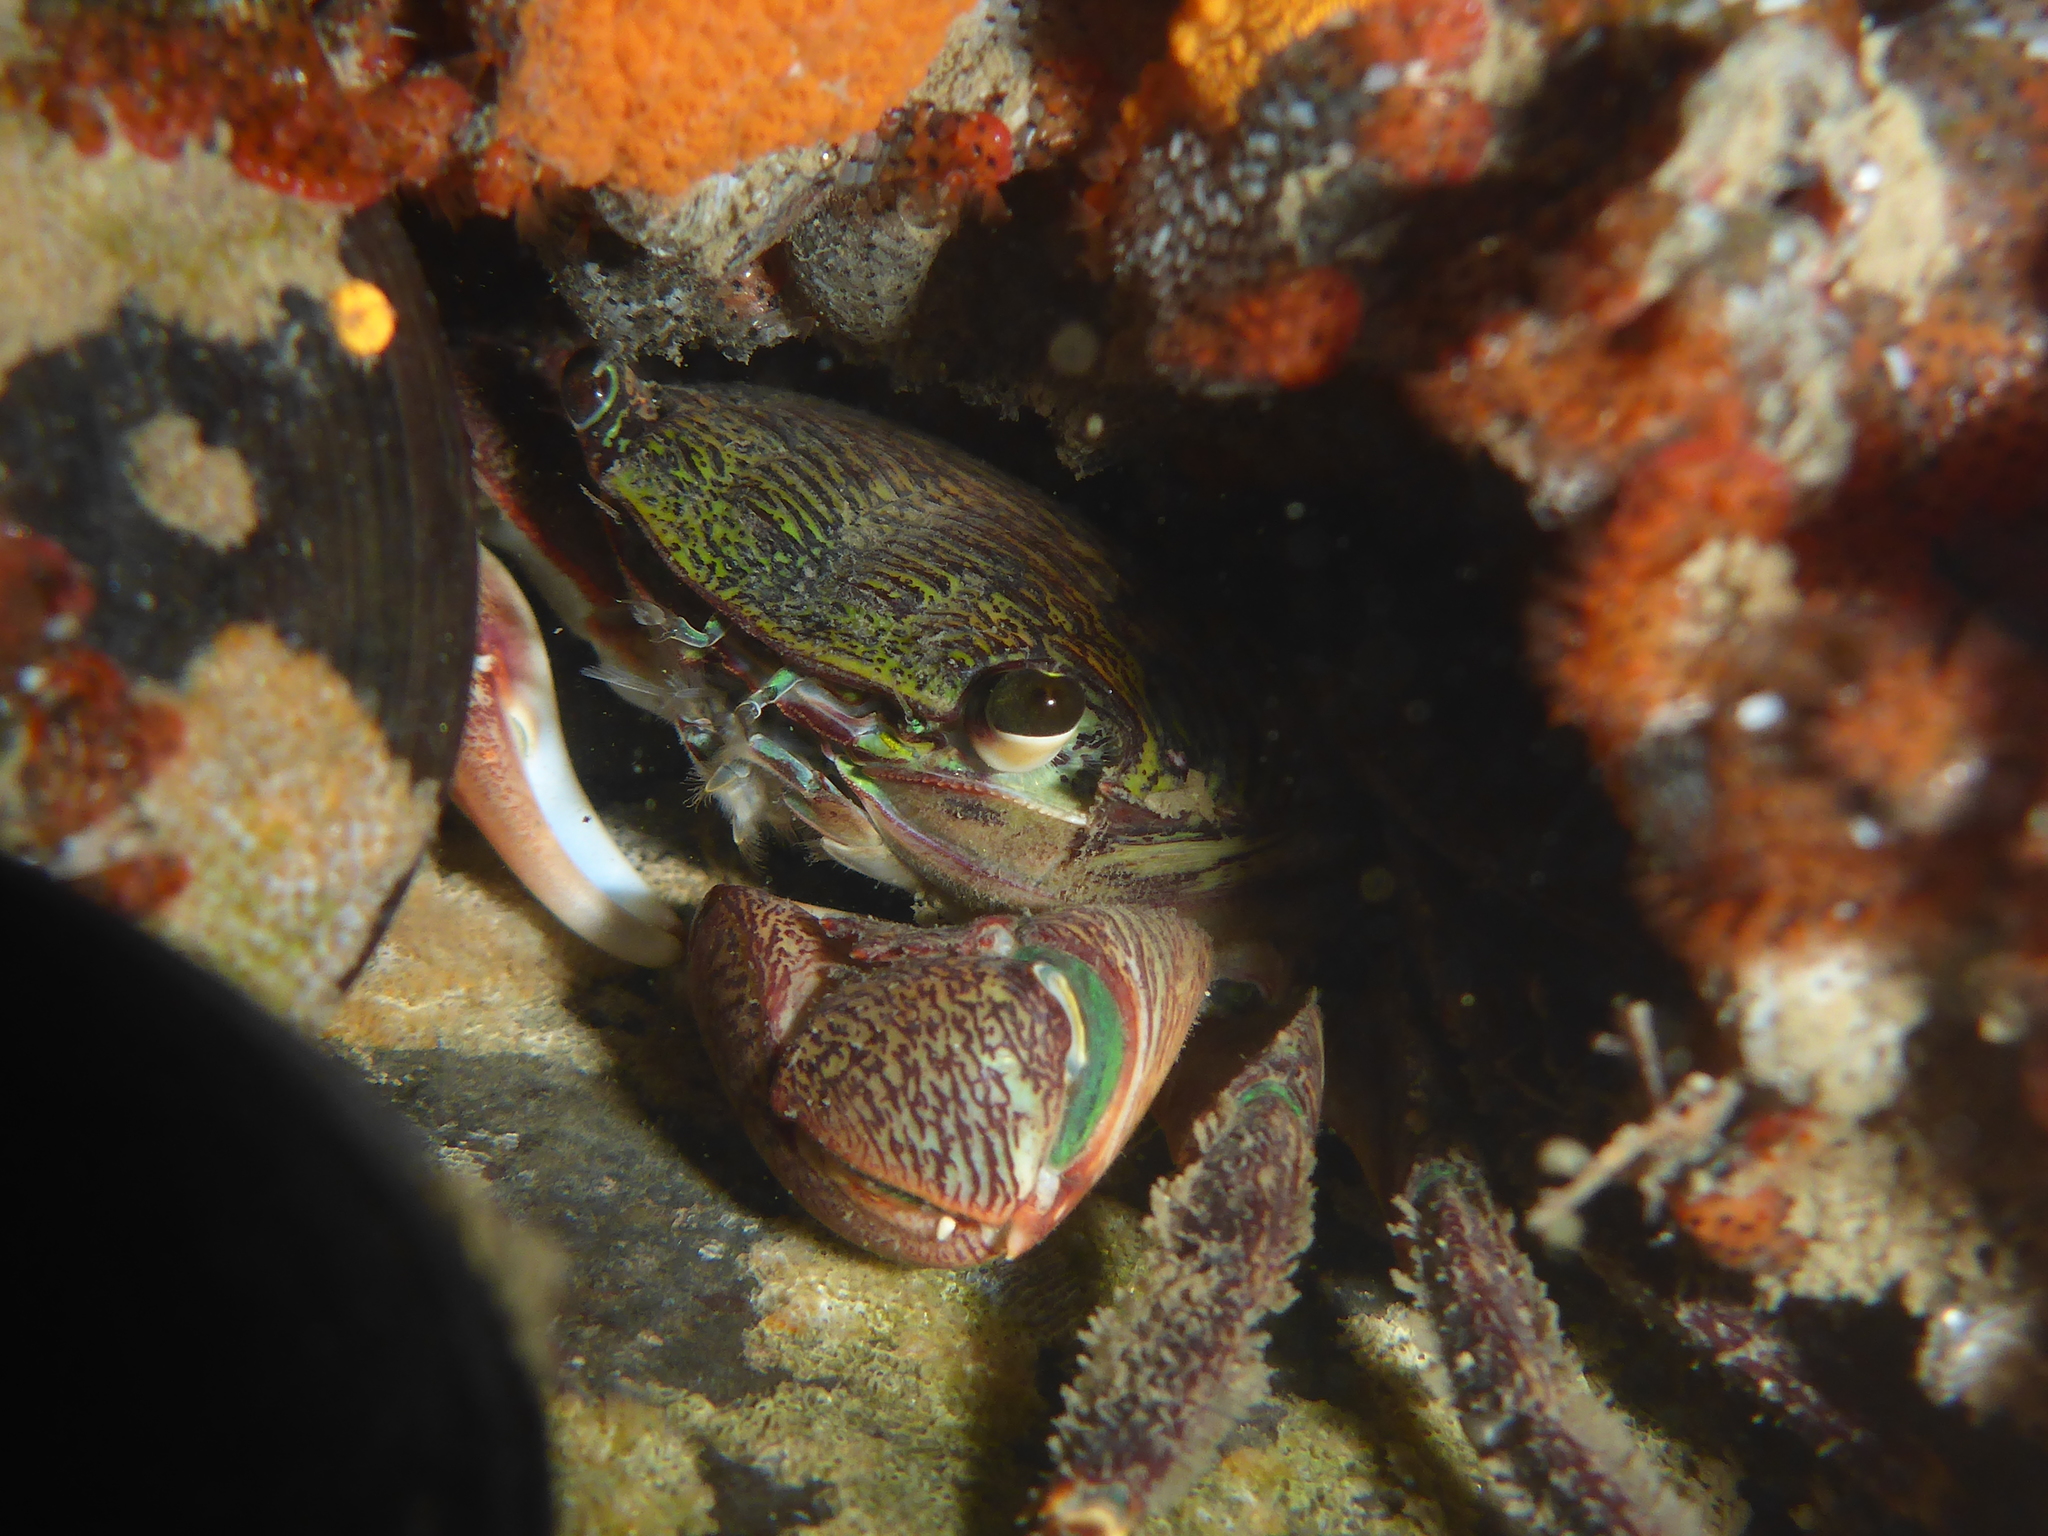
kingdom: Animalia
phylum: Arthropoda
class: Malacostraca
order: Decapoda
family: Grapsidae
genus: Pachygrapsus
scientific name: Pachygrapsus crassipes
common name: Striped shore crab
